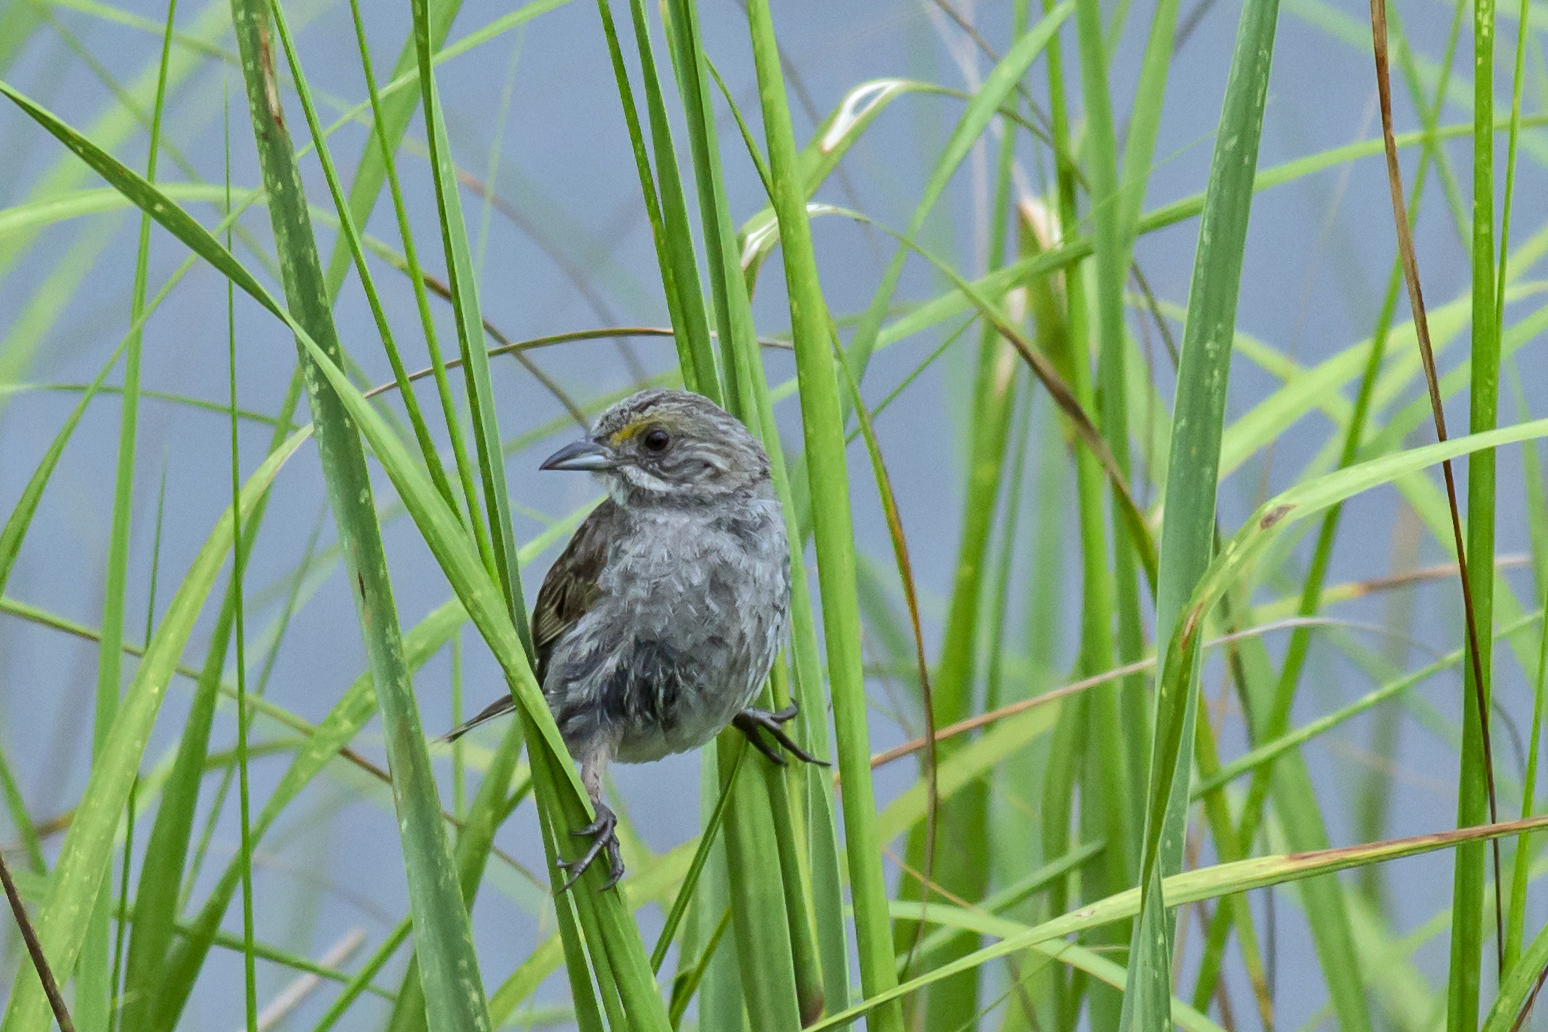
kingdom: Animalia
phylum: Chordata
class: Aves
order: Passeriformes
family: Passerellidae
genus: Ammospiza
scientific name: Ammospiza maritima
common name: Seaside sparrow
